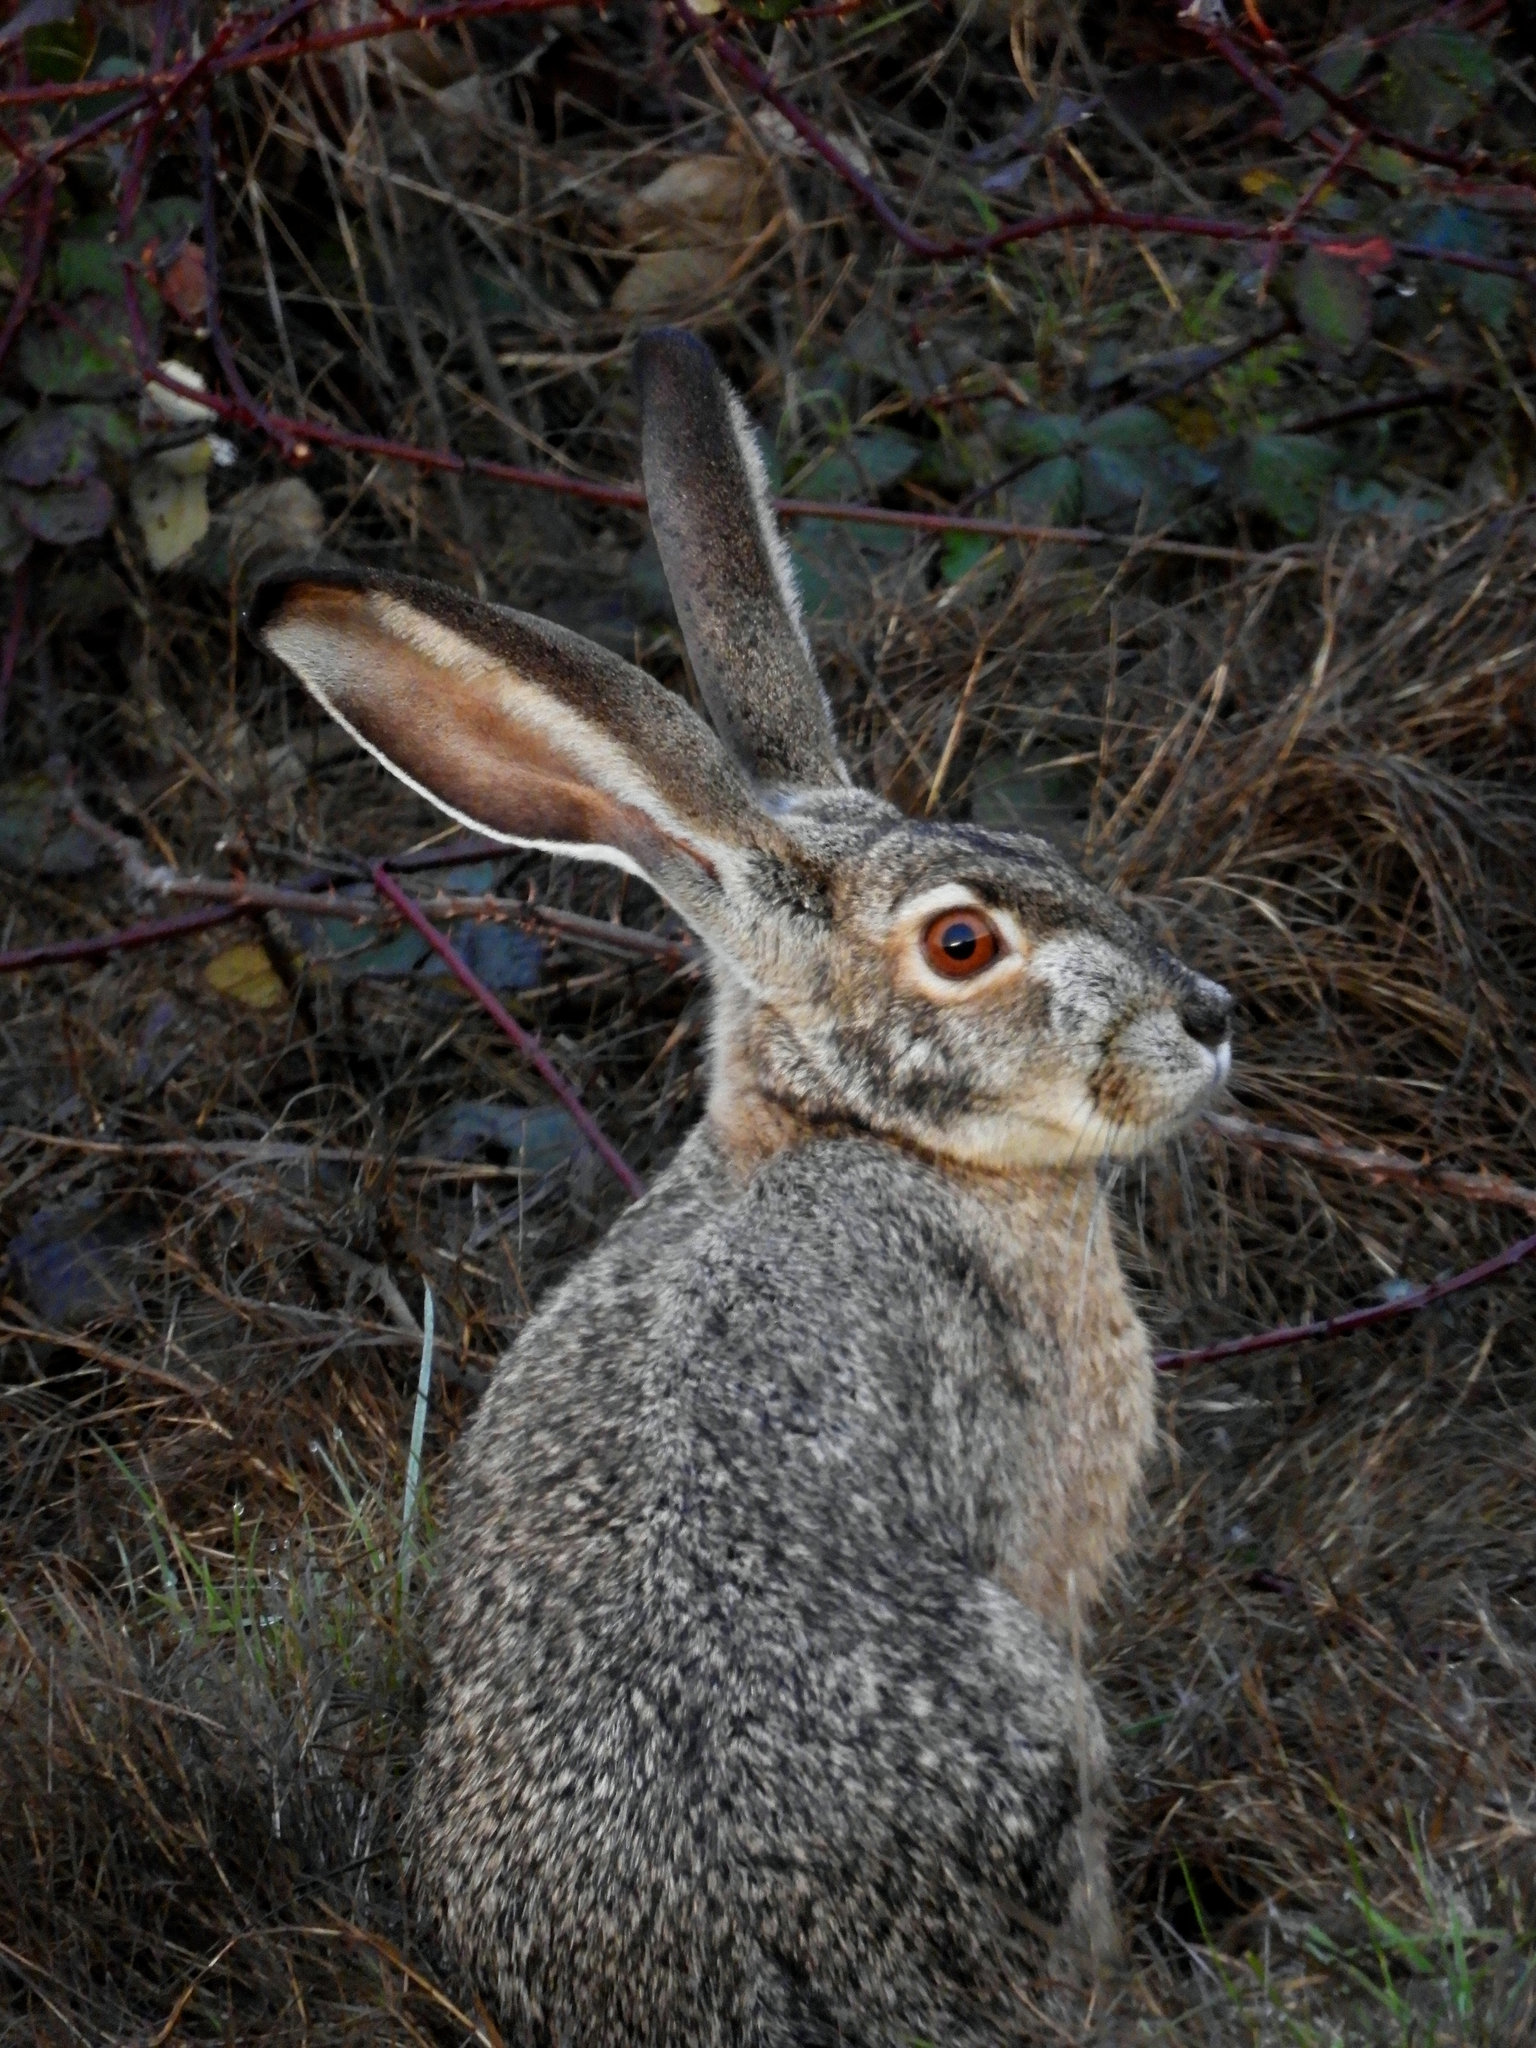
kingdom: Animalia
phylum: Chordata
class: Mammalia
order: Lagomorpha
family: Leporidae
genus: Lepus
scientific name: Lepus californicus
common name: Black-tailed jackrabbit
